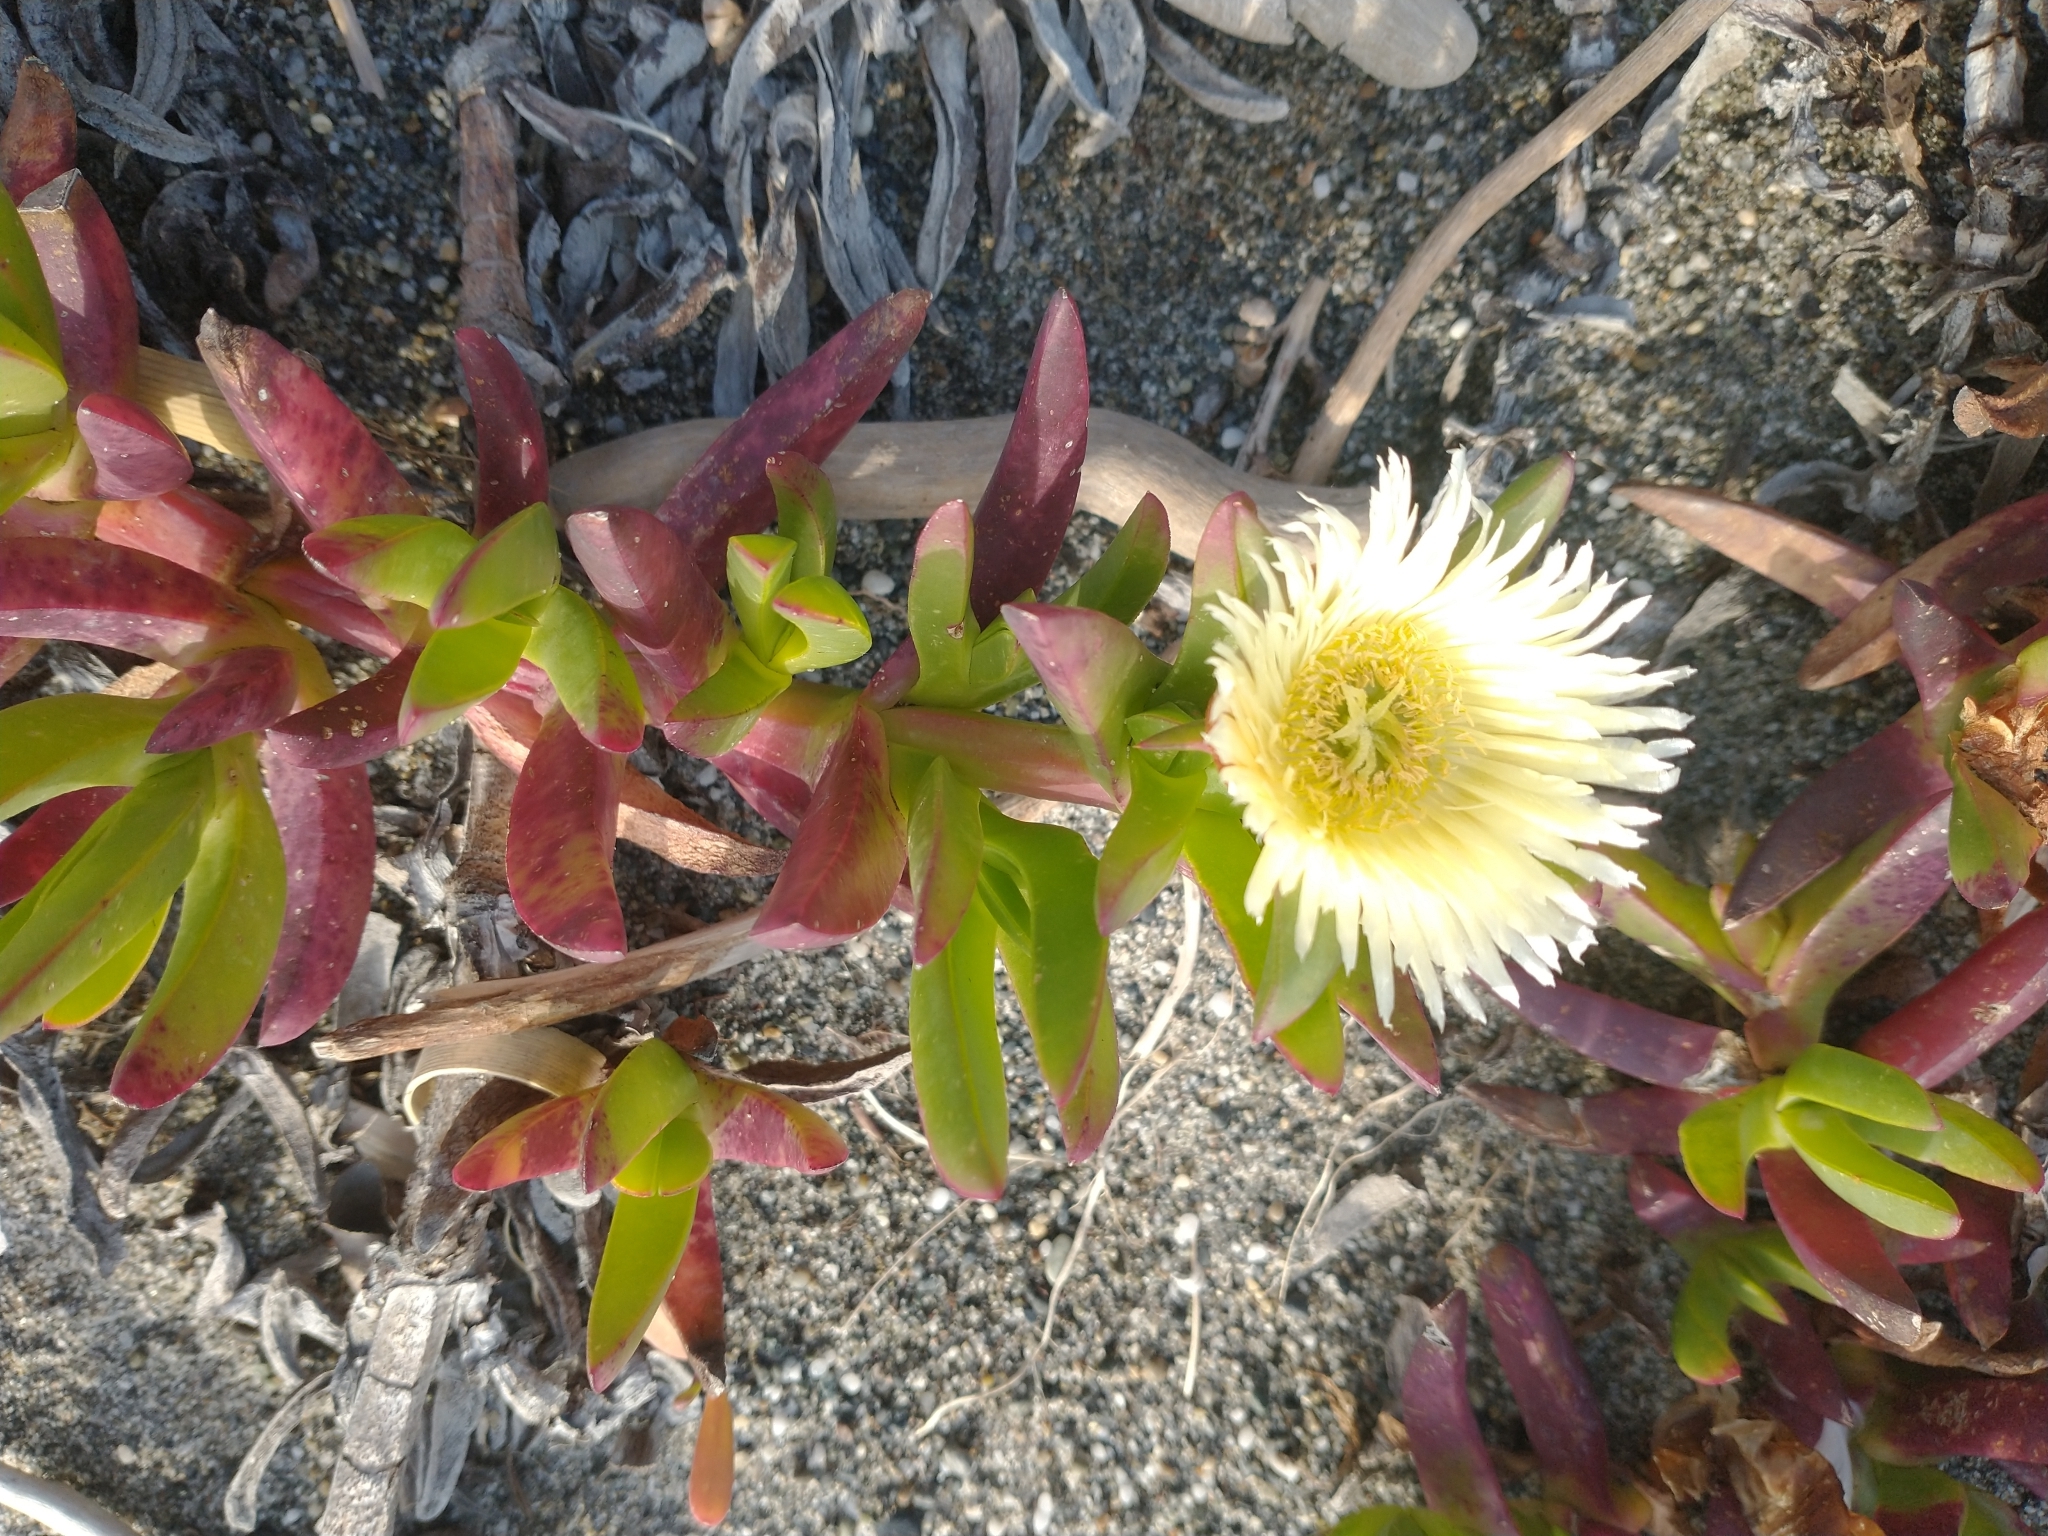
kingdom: Plantae
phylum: Tracheophyta
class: Magnoliopsida
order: Caryophyllales
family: Aizoaceae
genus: Carpobrotus
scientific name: Carpobrotus edulis
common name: Hottentot-fig
